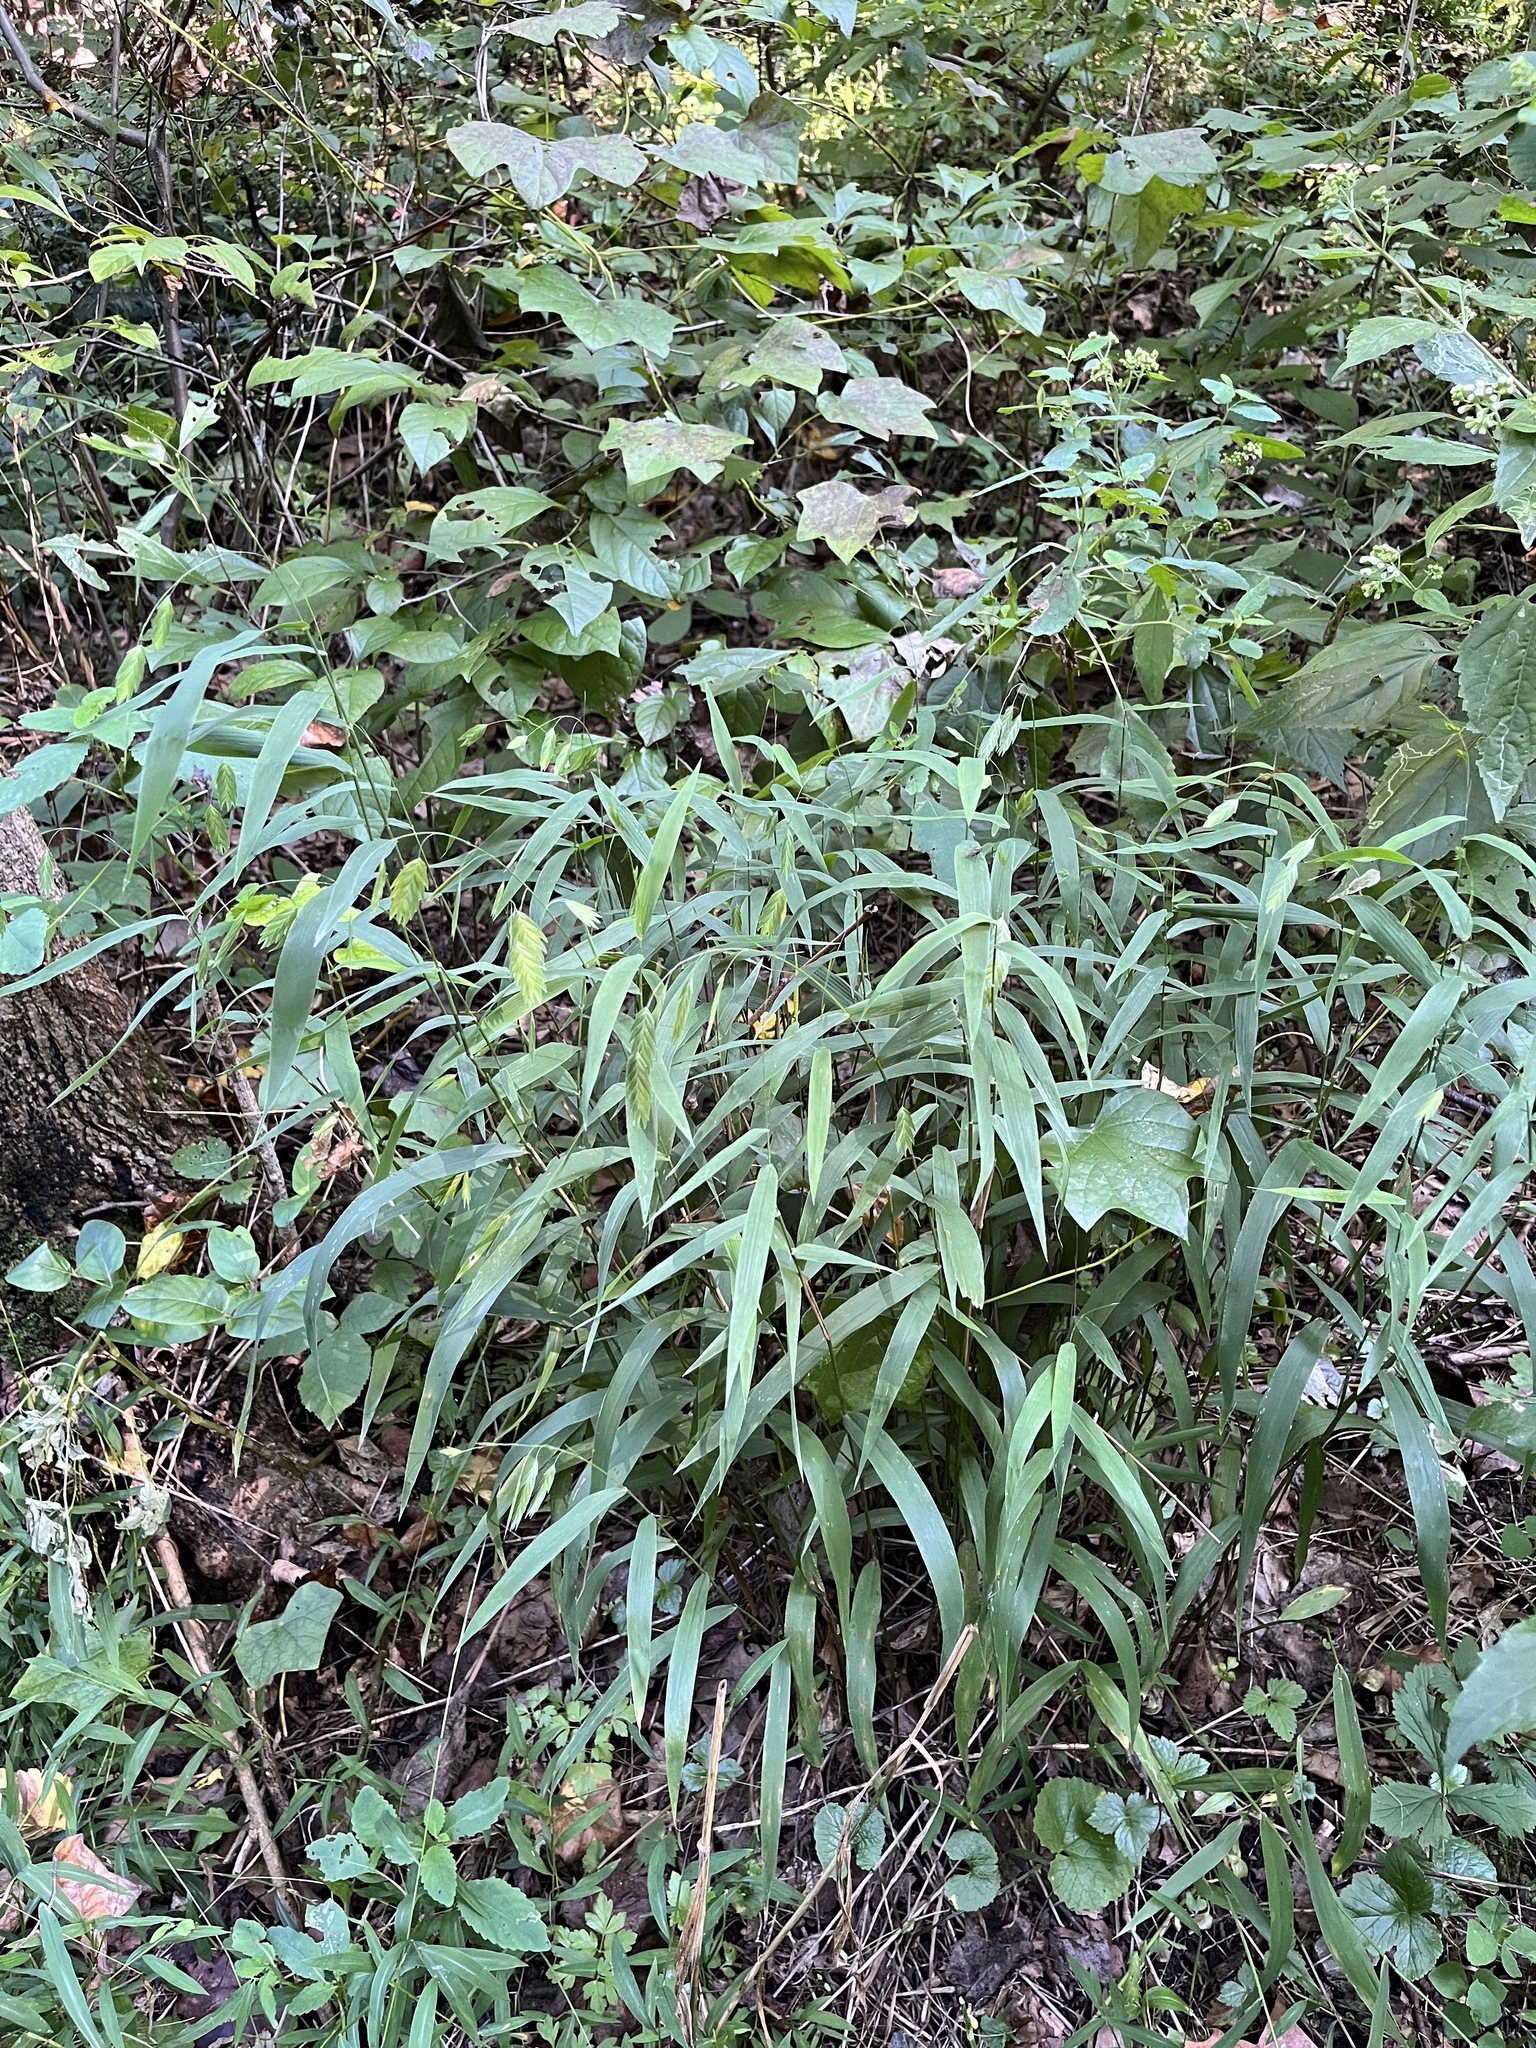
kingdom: Plantae
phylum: Tracheophyta
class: Liliopsida
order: Poales
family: Poaceae
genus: Chasmanthium
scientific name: Chasmanthium latifolium
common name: Broad-leaved chasmanthium
